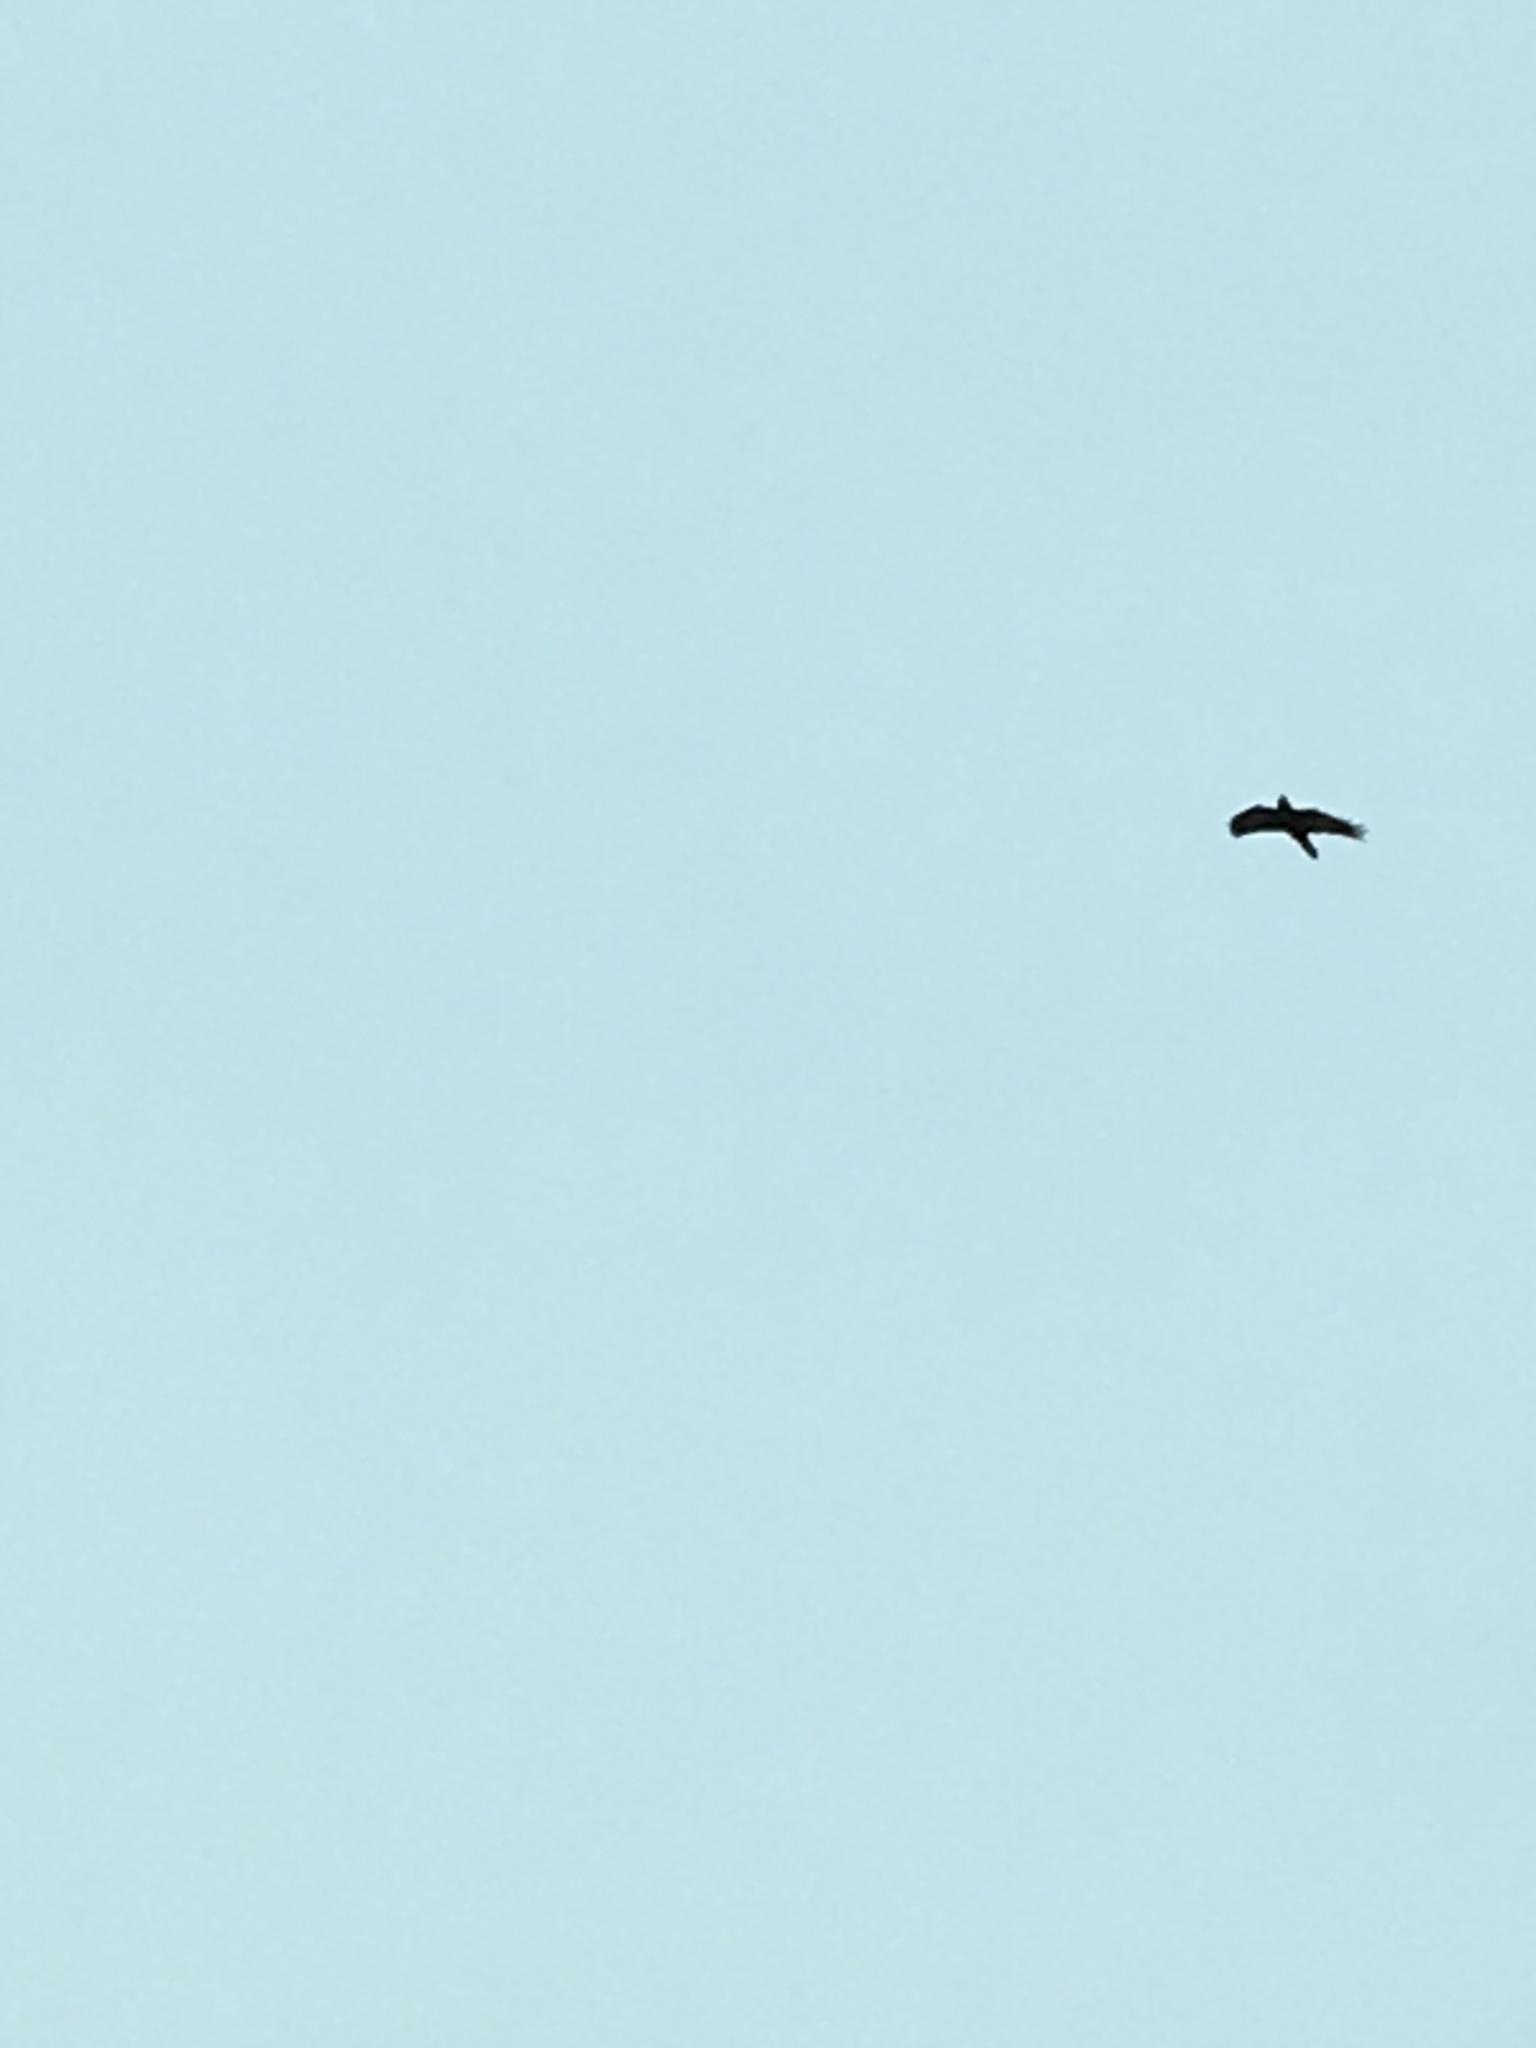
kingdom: Animalia
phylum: Chordata
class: Aves
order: Passeriformes
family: Corvidae
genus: Corvus
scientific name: Corvus corax
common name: Common raven
